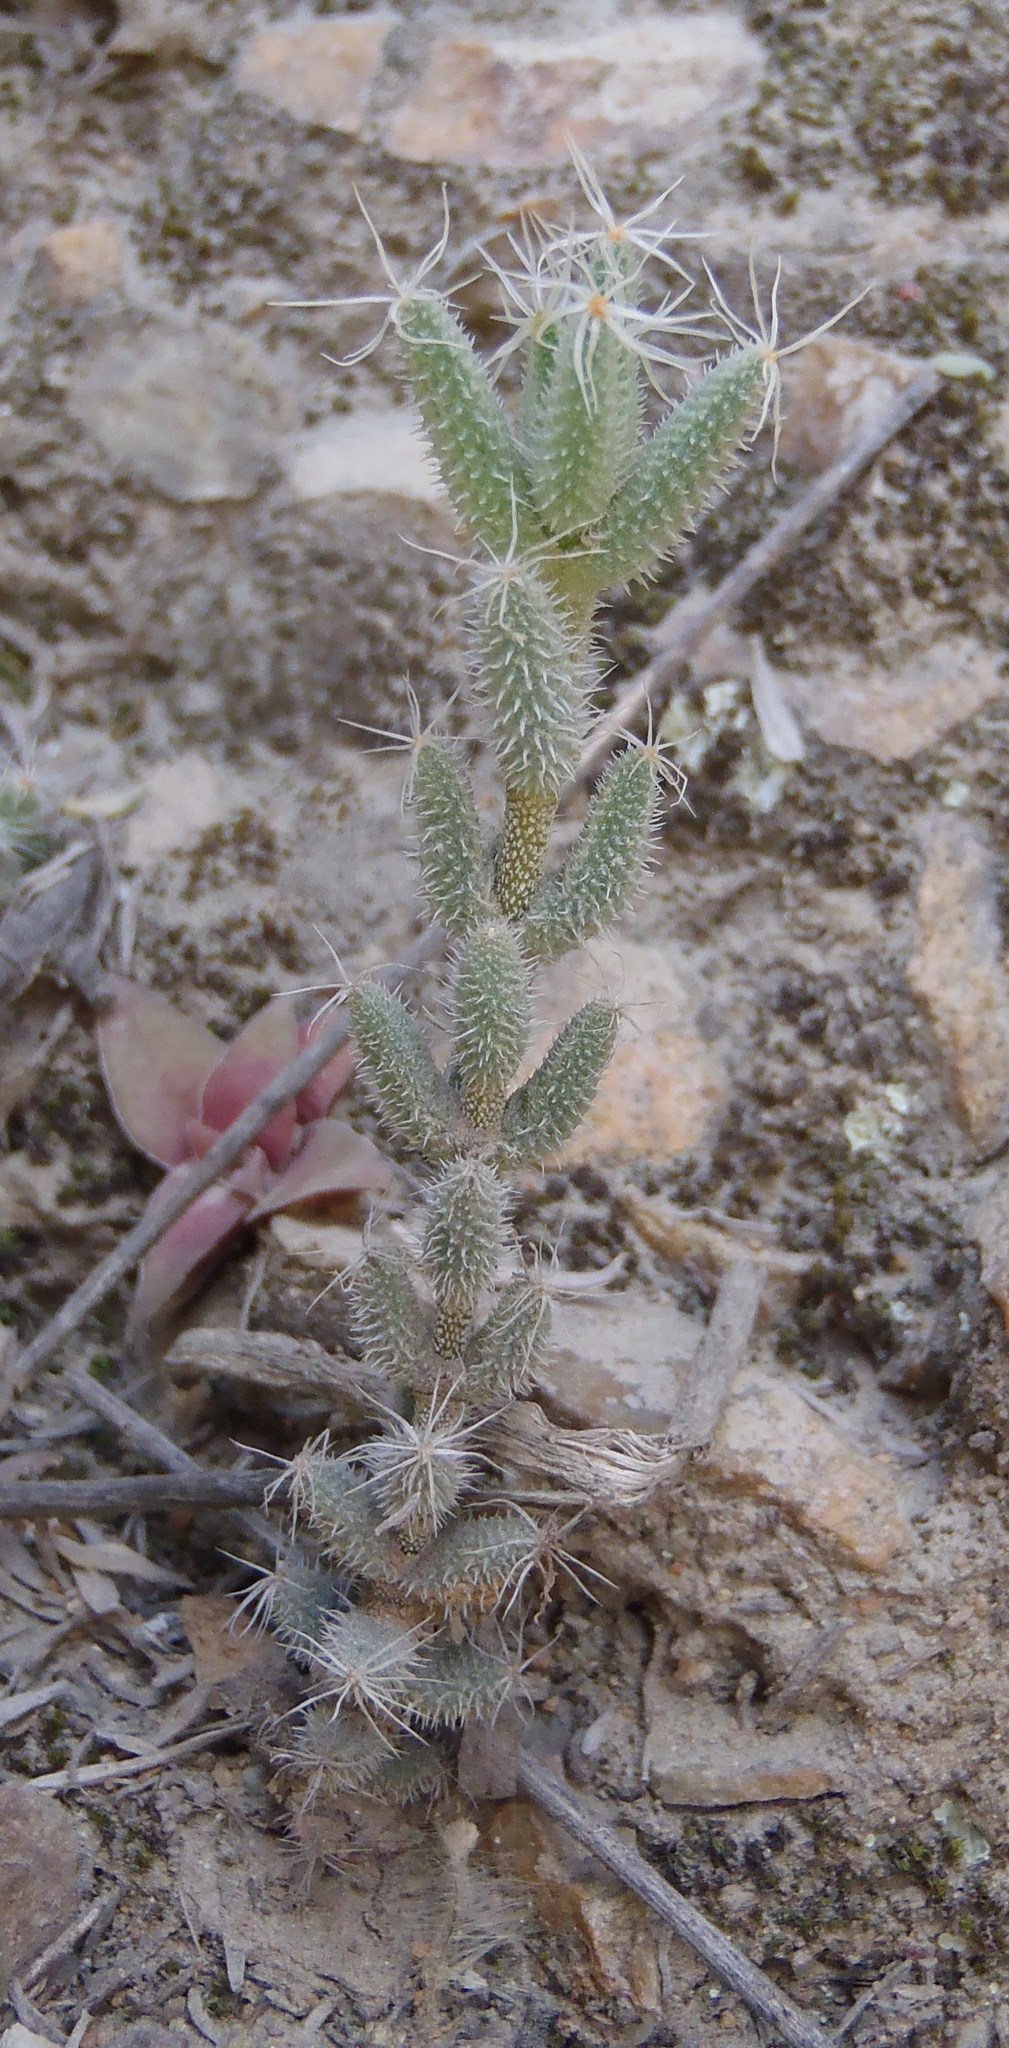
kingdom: Plantae
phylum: Tracheophyta
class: Magnoliopsida
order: Caryophyllales
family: Aizoaceae
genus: Trichodiadema
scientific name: Trichodiadema setuliferum
